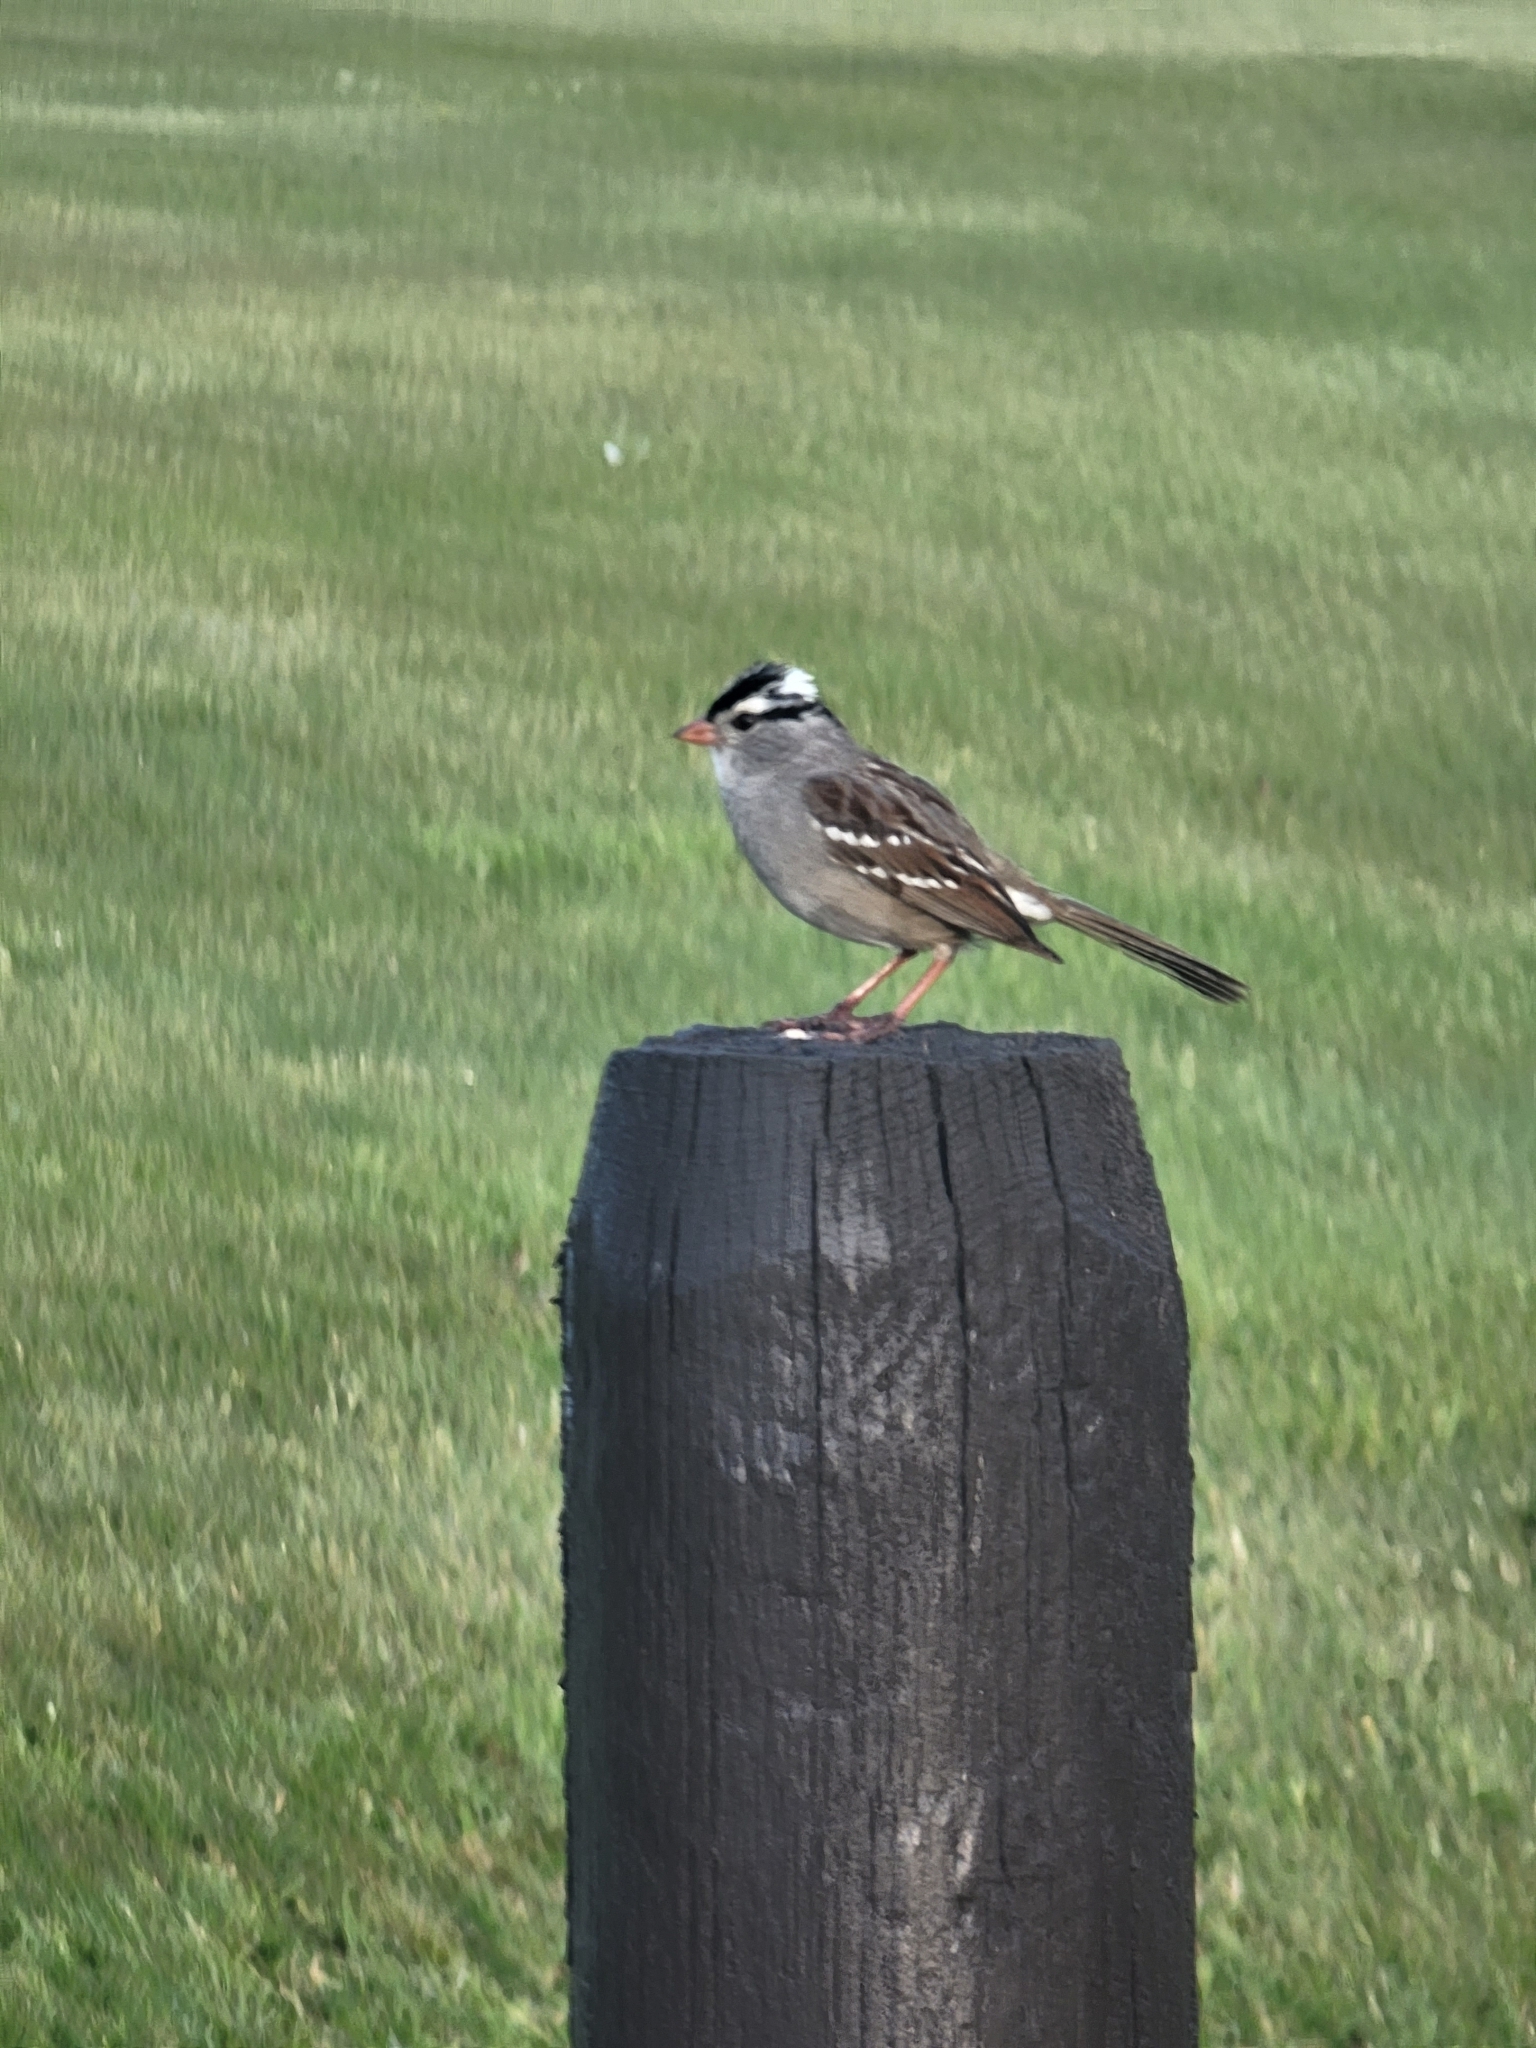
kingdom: Animalia
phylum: Chordata
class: Aves
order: Passeriformes
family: Passerellidae
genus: Zonotrichia
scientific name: Zonotrichia leucophrys
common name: White-crowned sparrow
